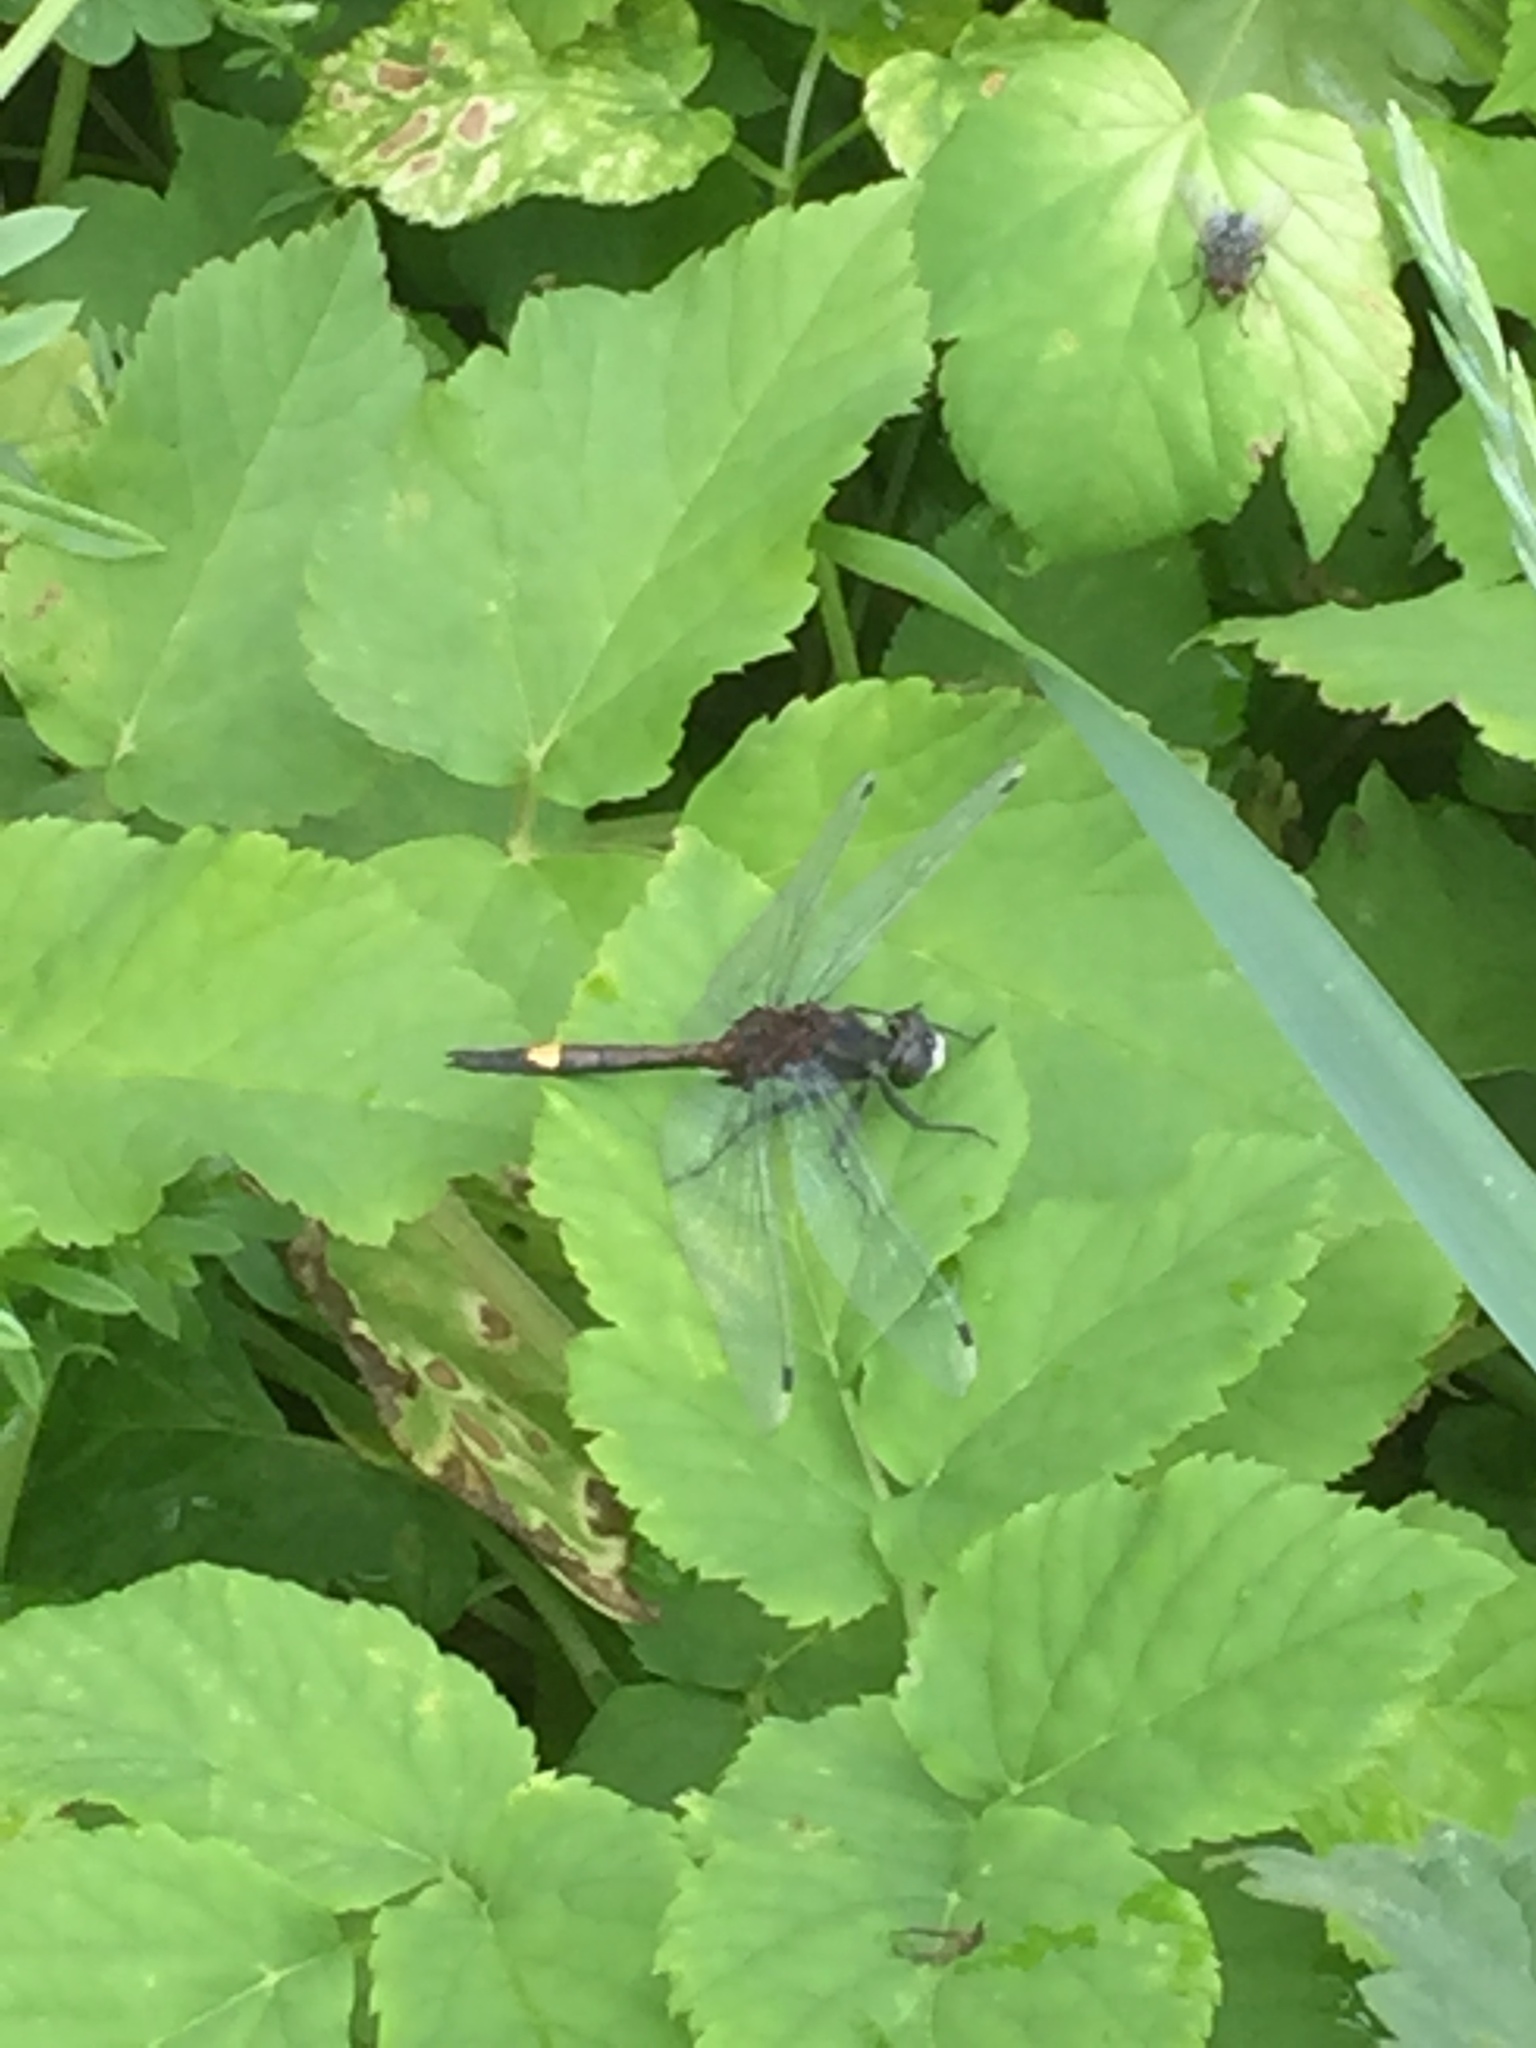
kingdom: Animalia
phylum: Arthropoda
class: Insecta
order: Odonata
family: Libellulidae
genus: Leucorrhinia
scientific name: Leucorrhinia pectoralis
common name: Yellow-spotted whiteface
